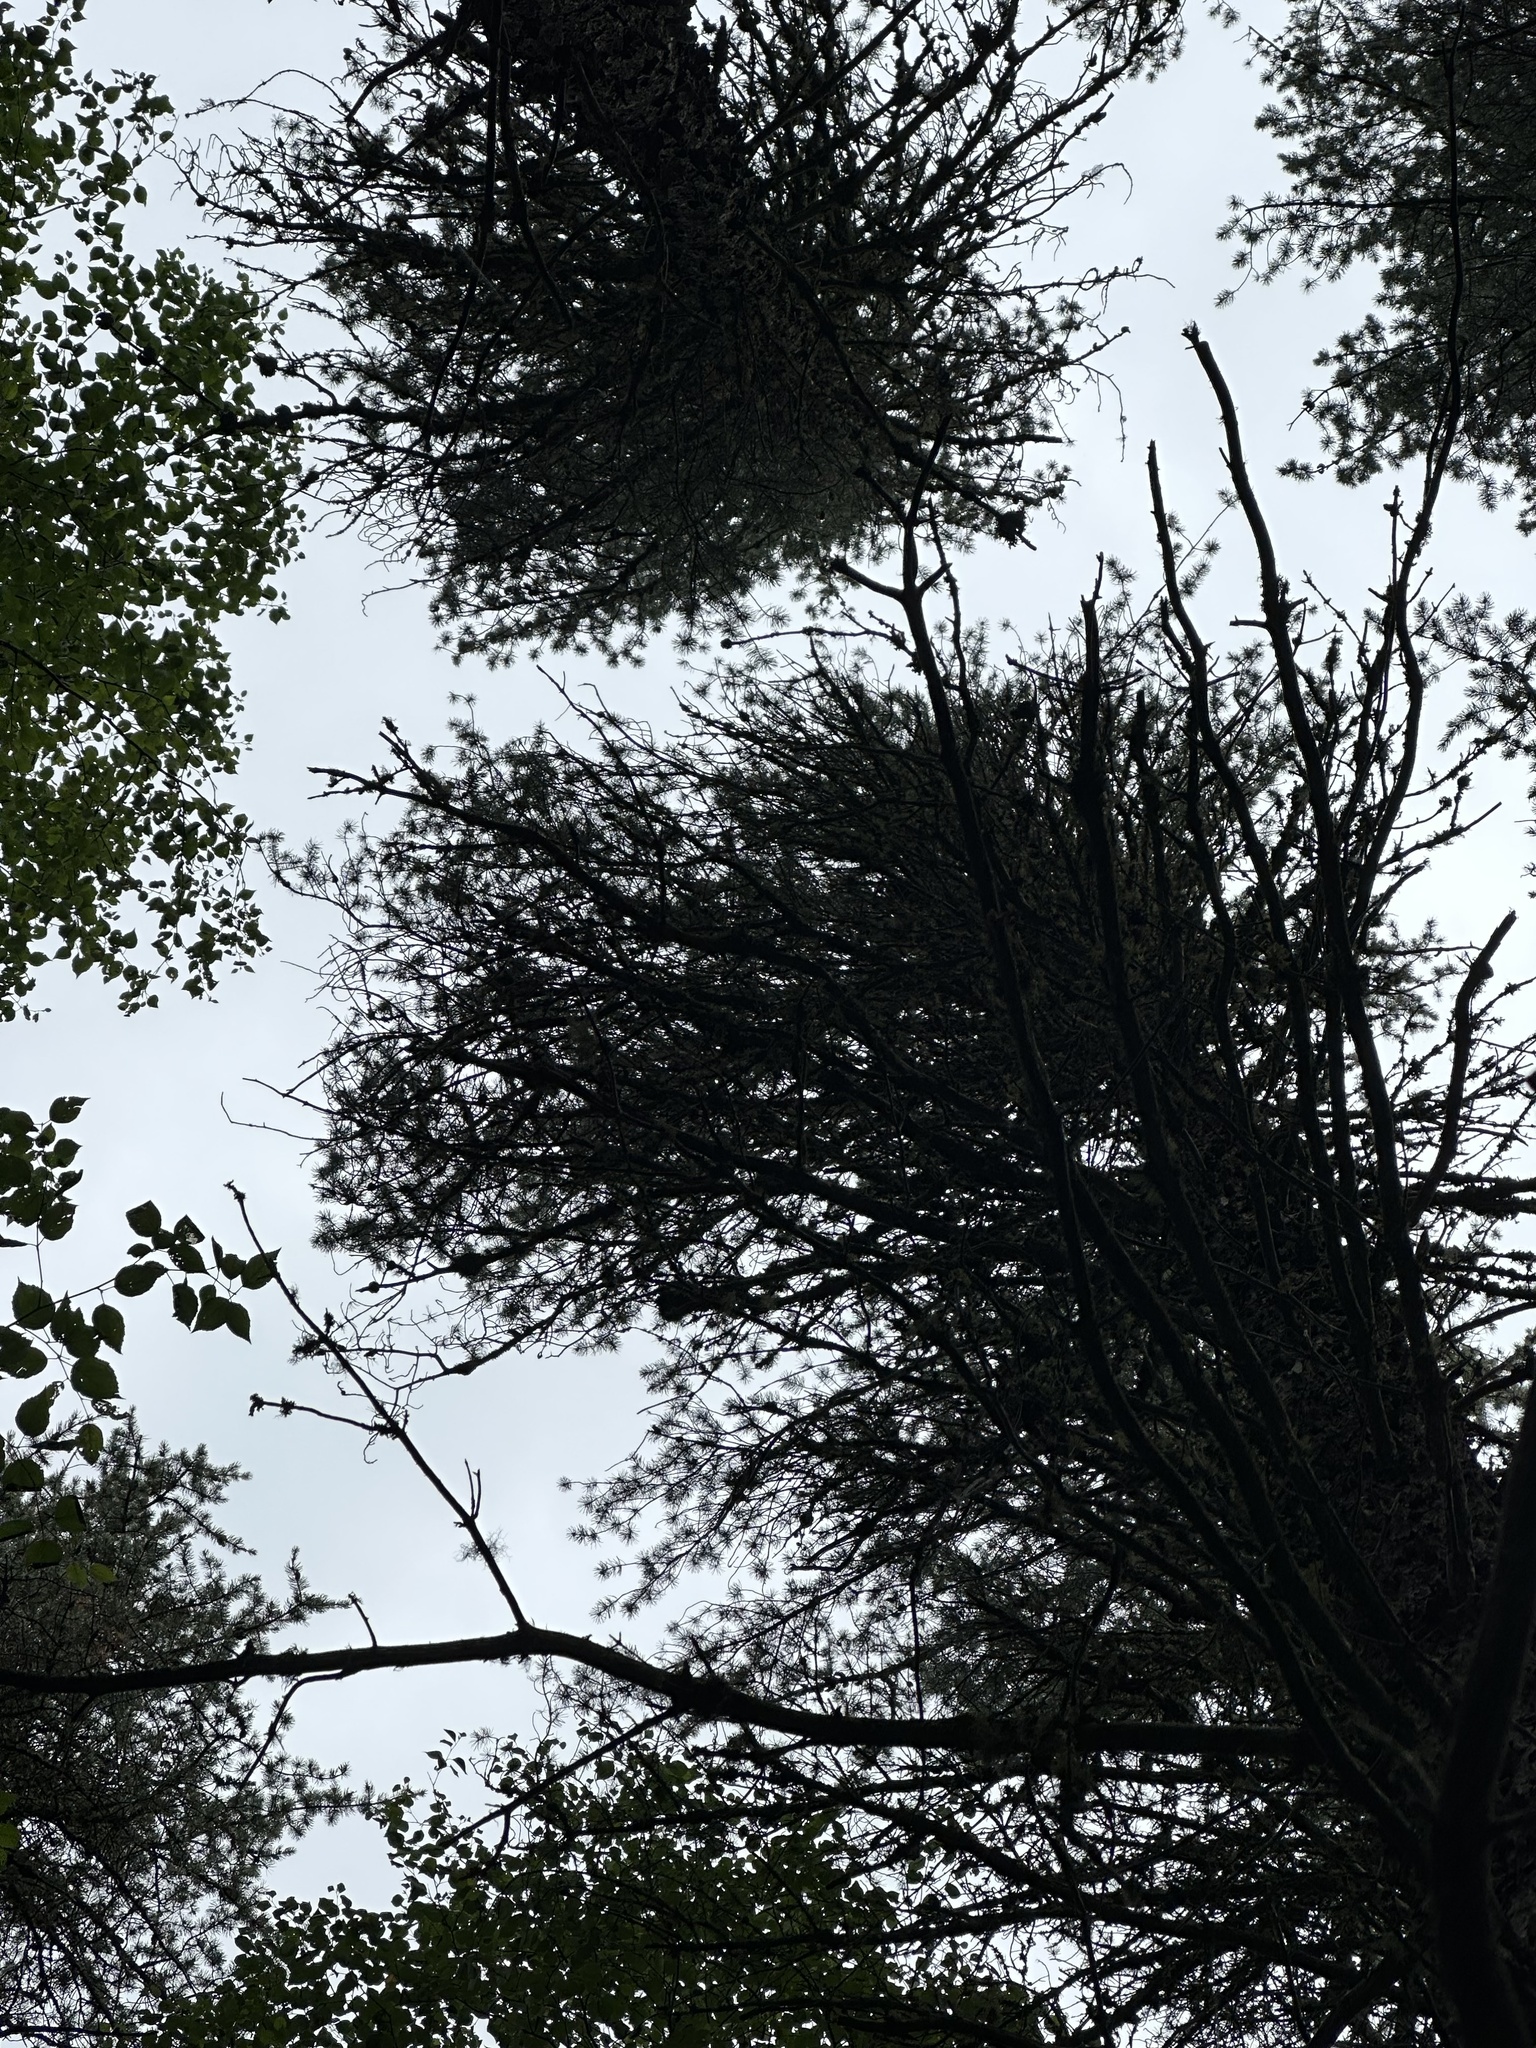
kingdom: Plantae
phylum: Tracheophyta
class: Pinopsida
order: Pinales
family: Pinaceae
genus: Pinus
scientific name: Pinus banksiana
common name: Jack pine
